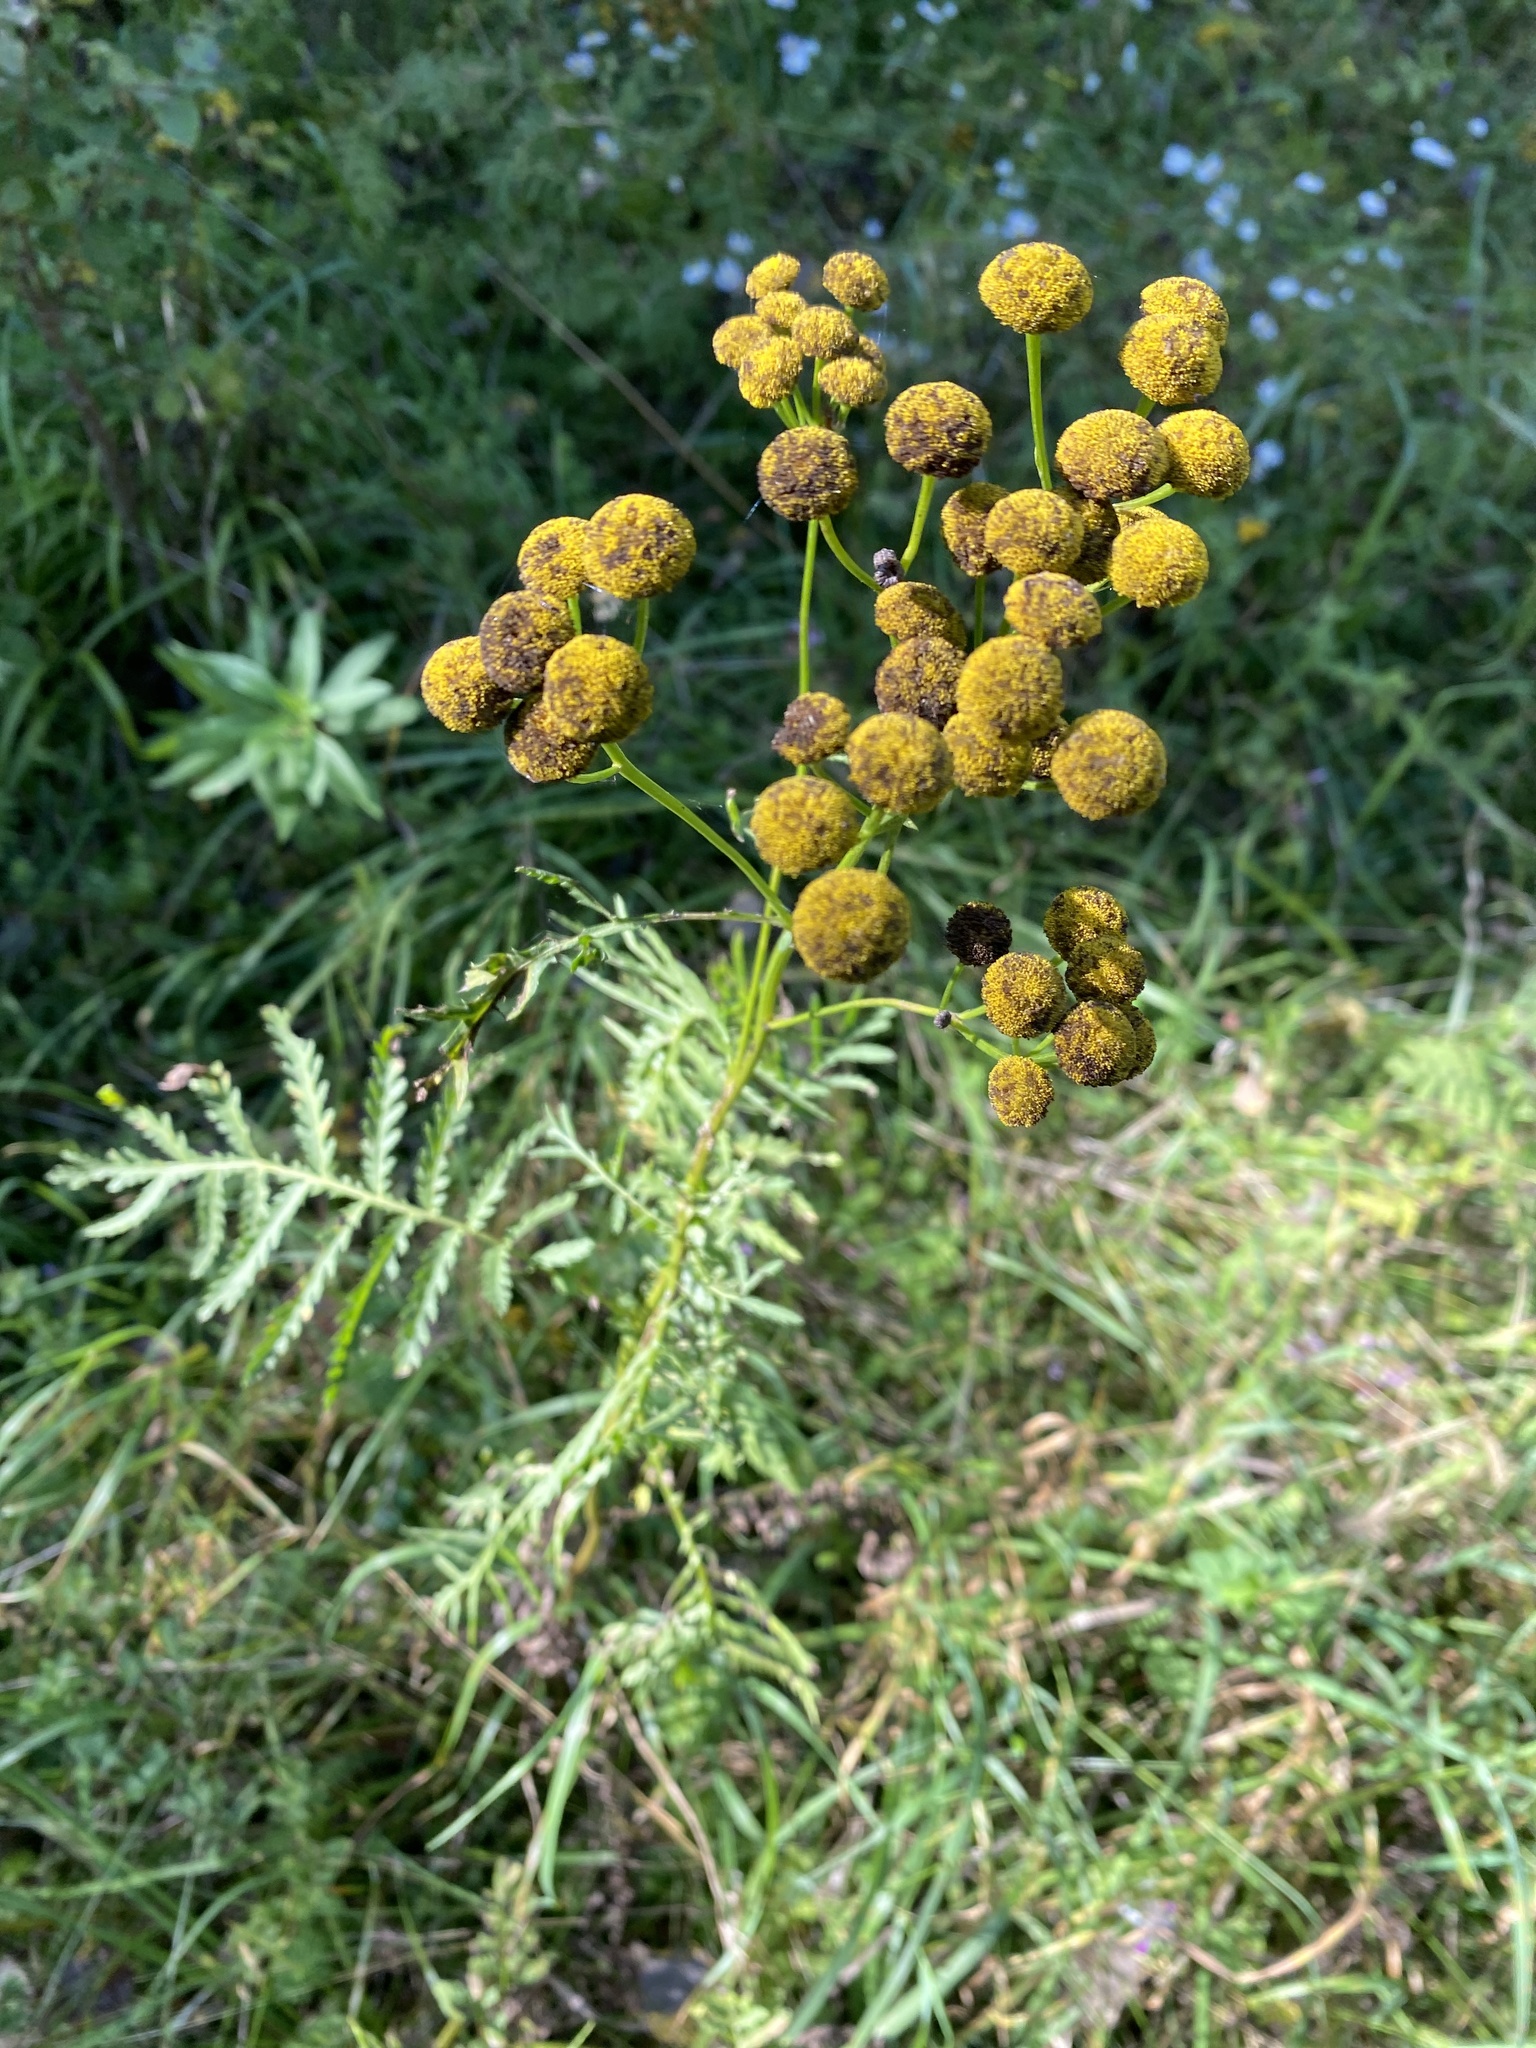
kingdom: Plantae
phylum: Tracheophyta
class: Magnoliopsida
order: Asterales
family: Asteraceae
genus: Tanacetum
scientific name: Tanacetum vulgare
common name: Common tansy
